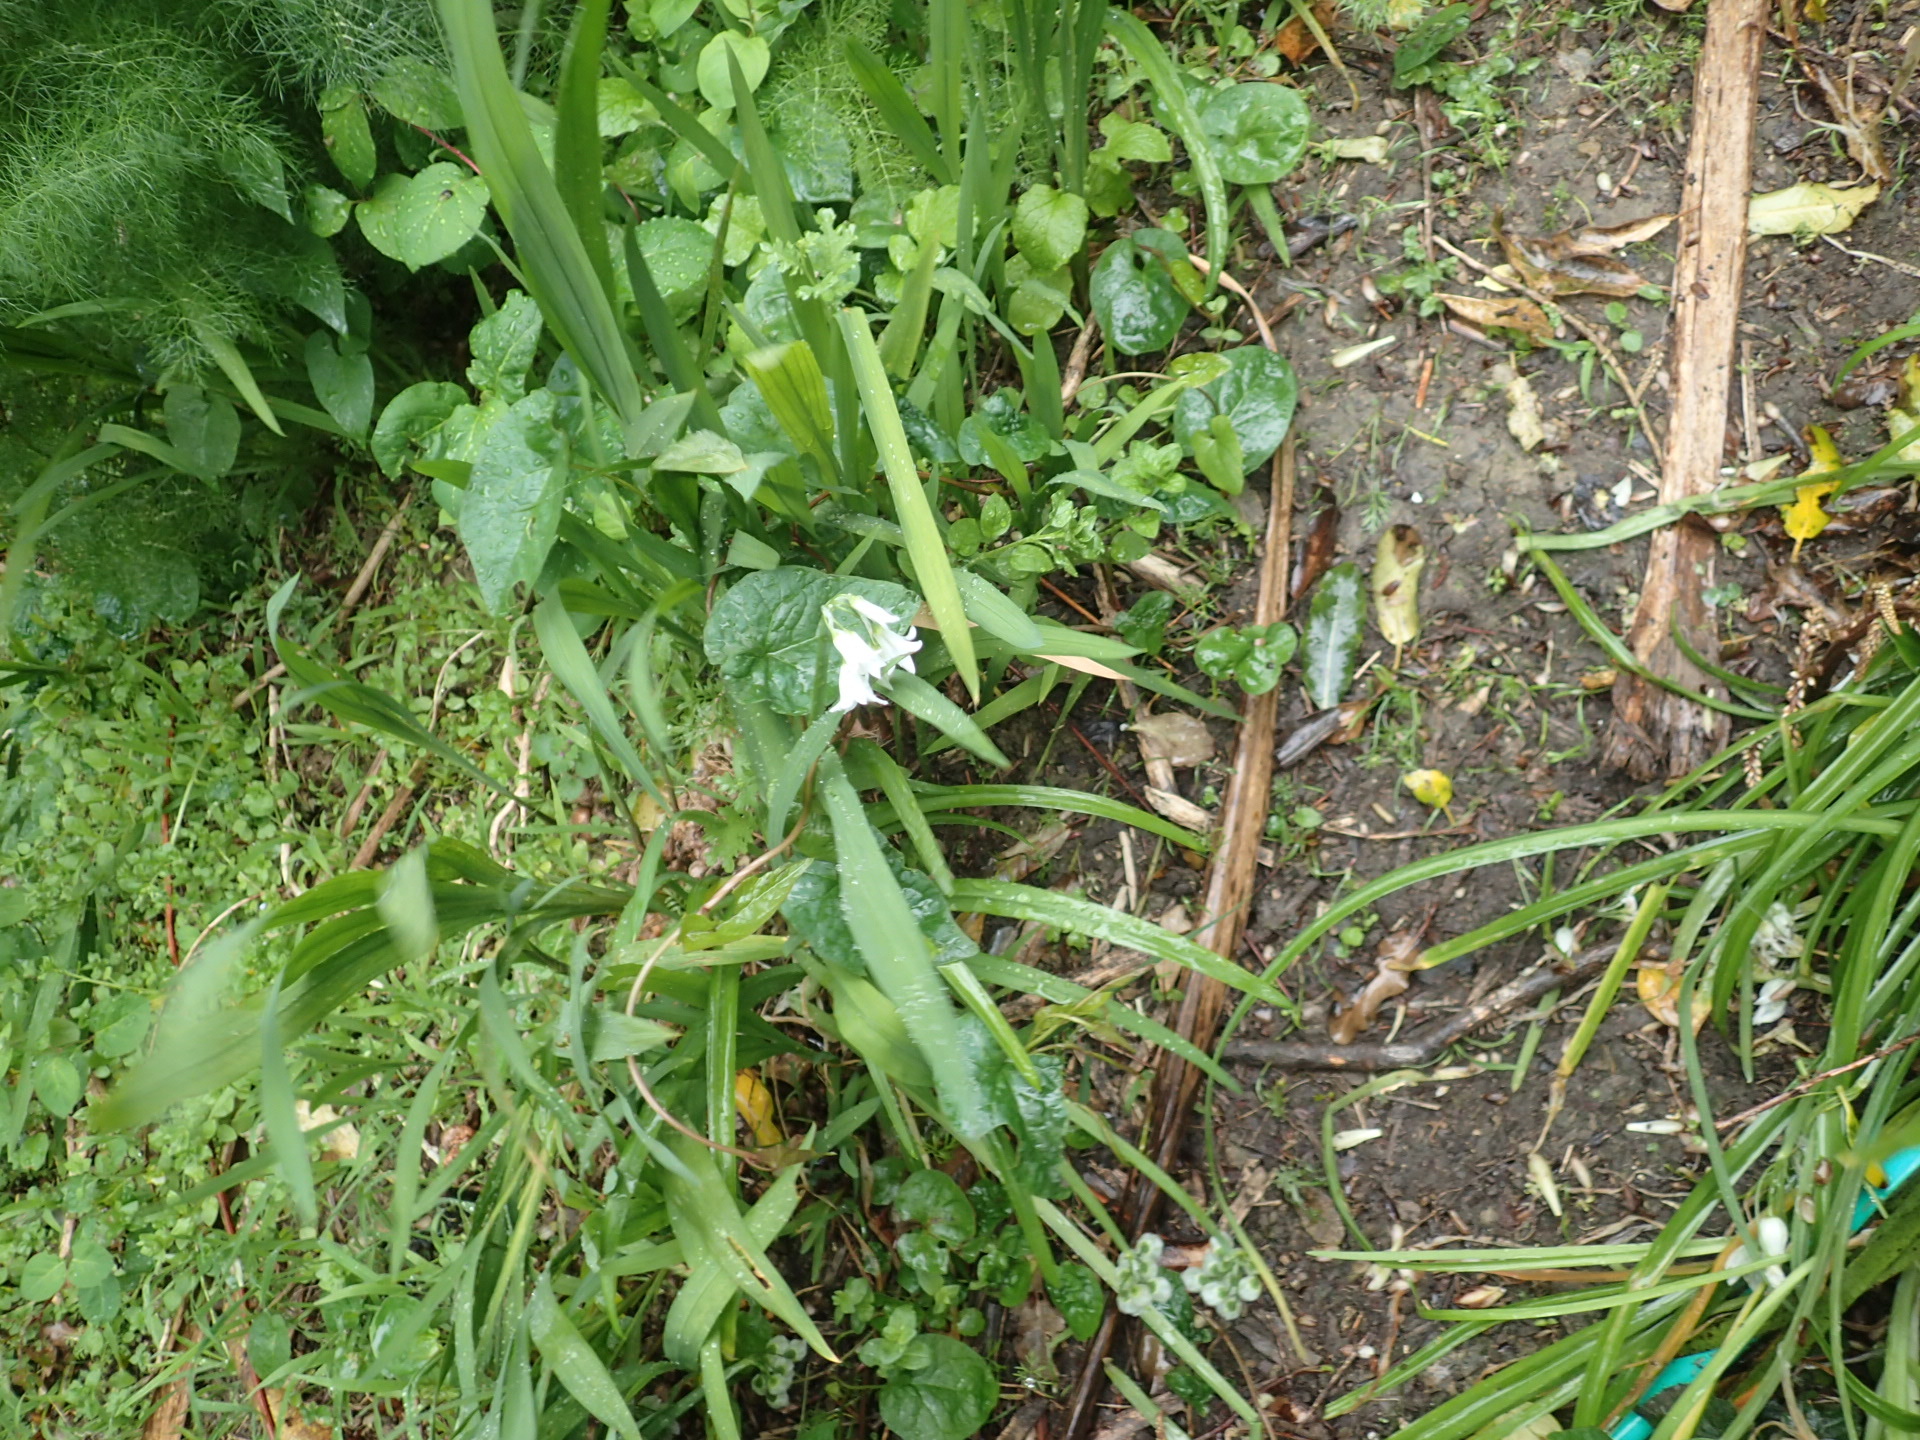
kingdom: Plantae
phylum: Tracheophyta
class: Liliopsida
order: Asparagales
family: Amaryllidaceae
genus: Allium
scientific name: Allium triquetrum
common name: Three-cornered garlic
